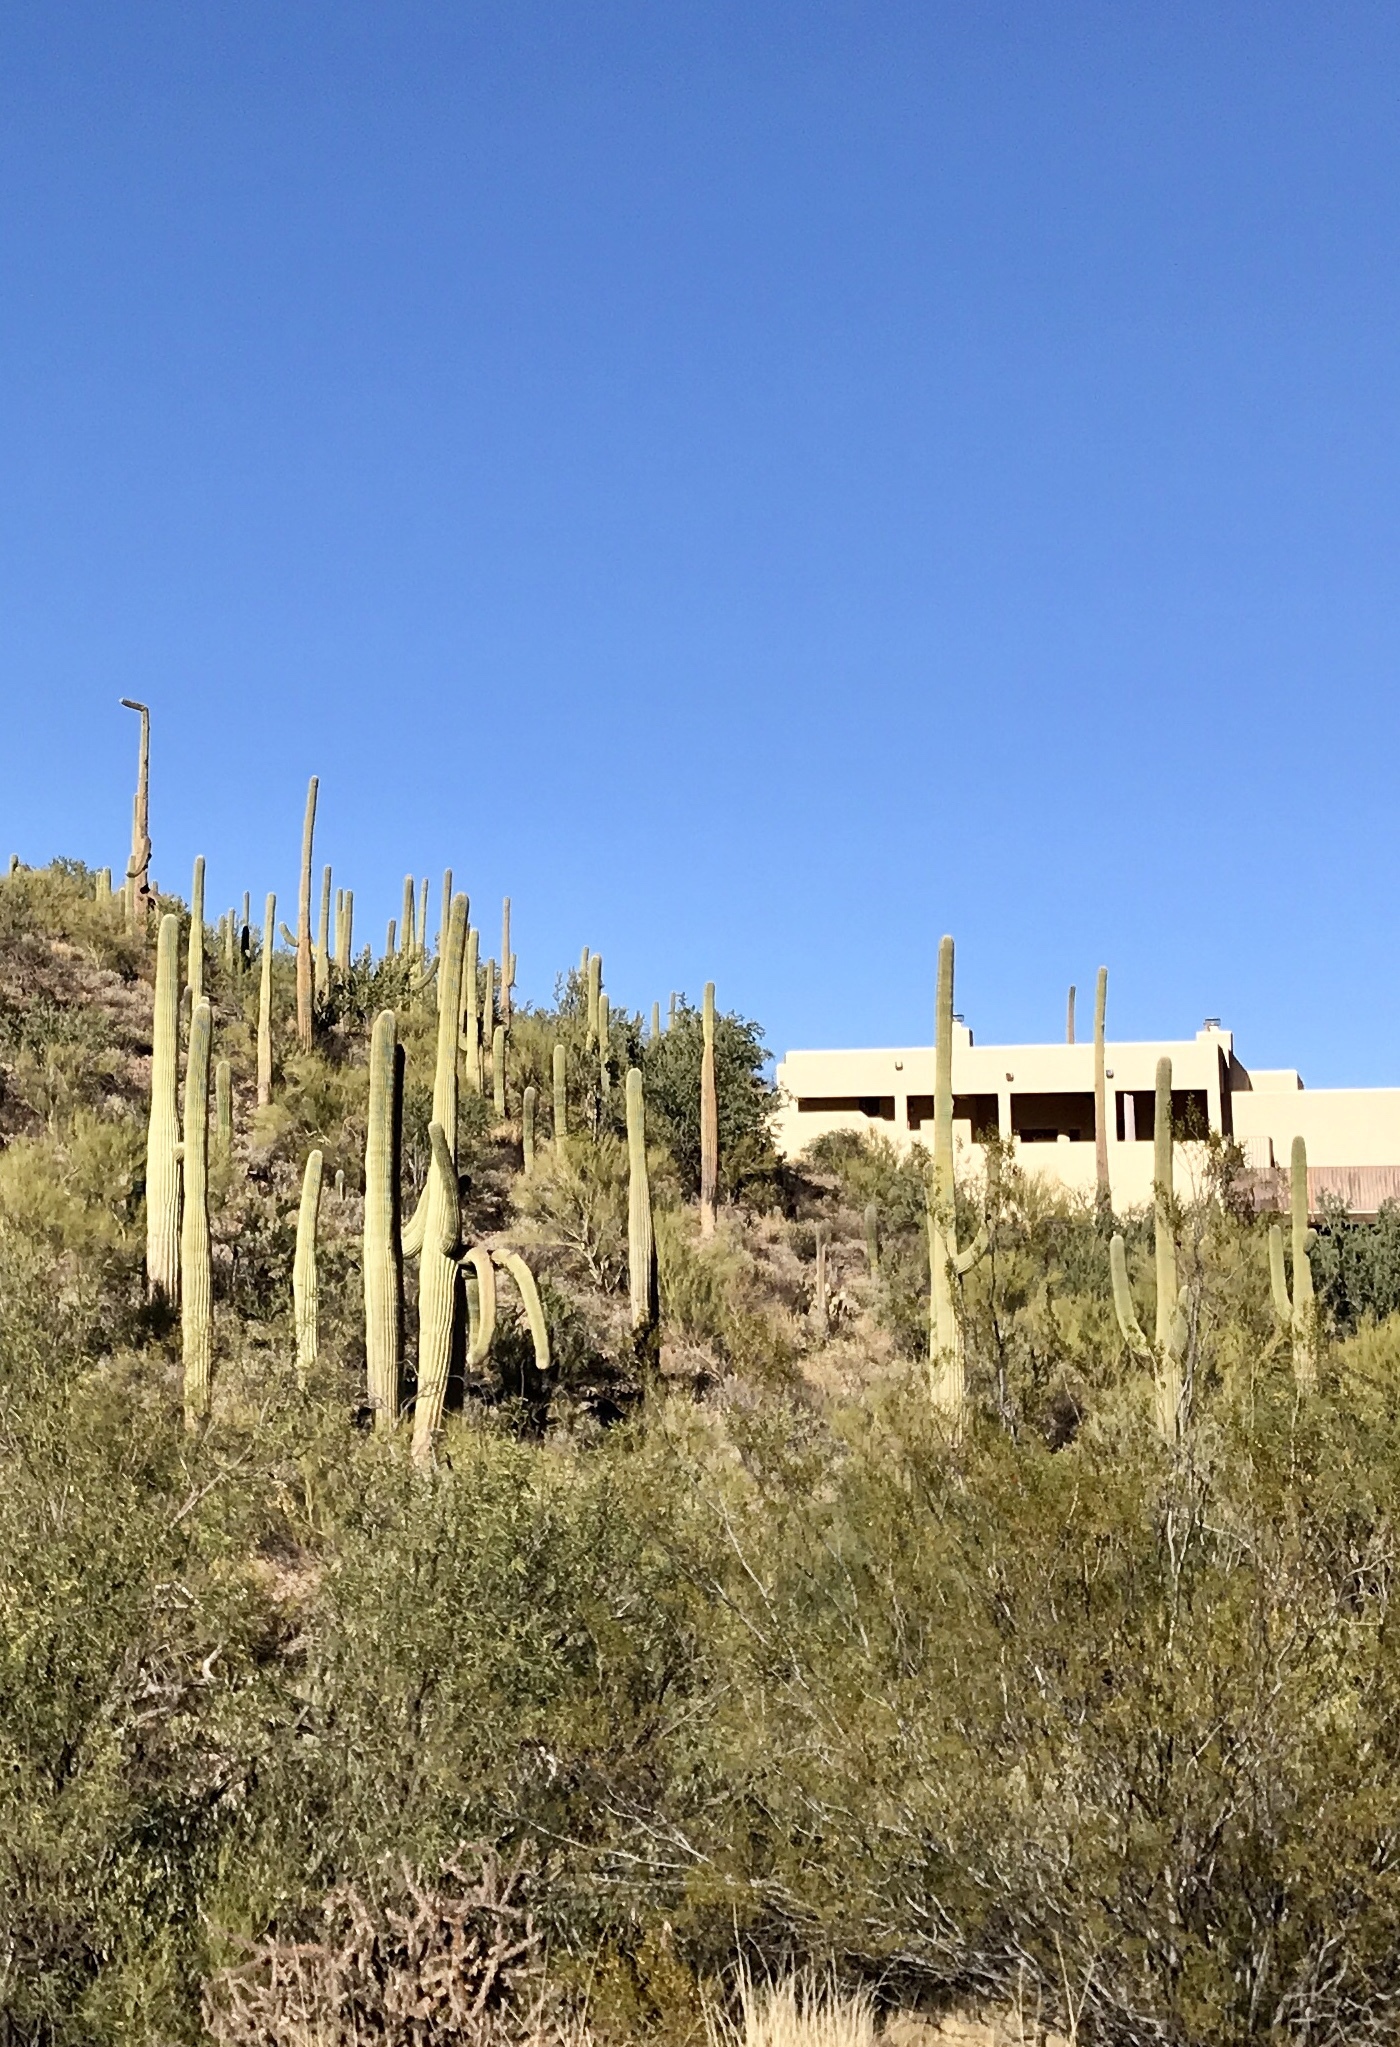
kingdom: Plantae
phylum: Tracheophyta
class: Magnoliopsida
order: Caryophyllales
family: Cactaceae
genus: Carnegiea
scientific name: Carnegiea gigantea
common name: Saguaro
